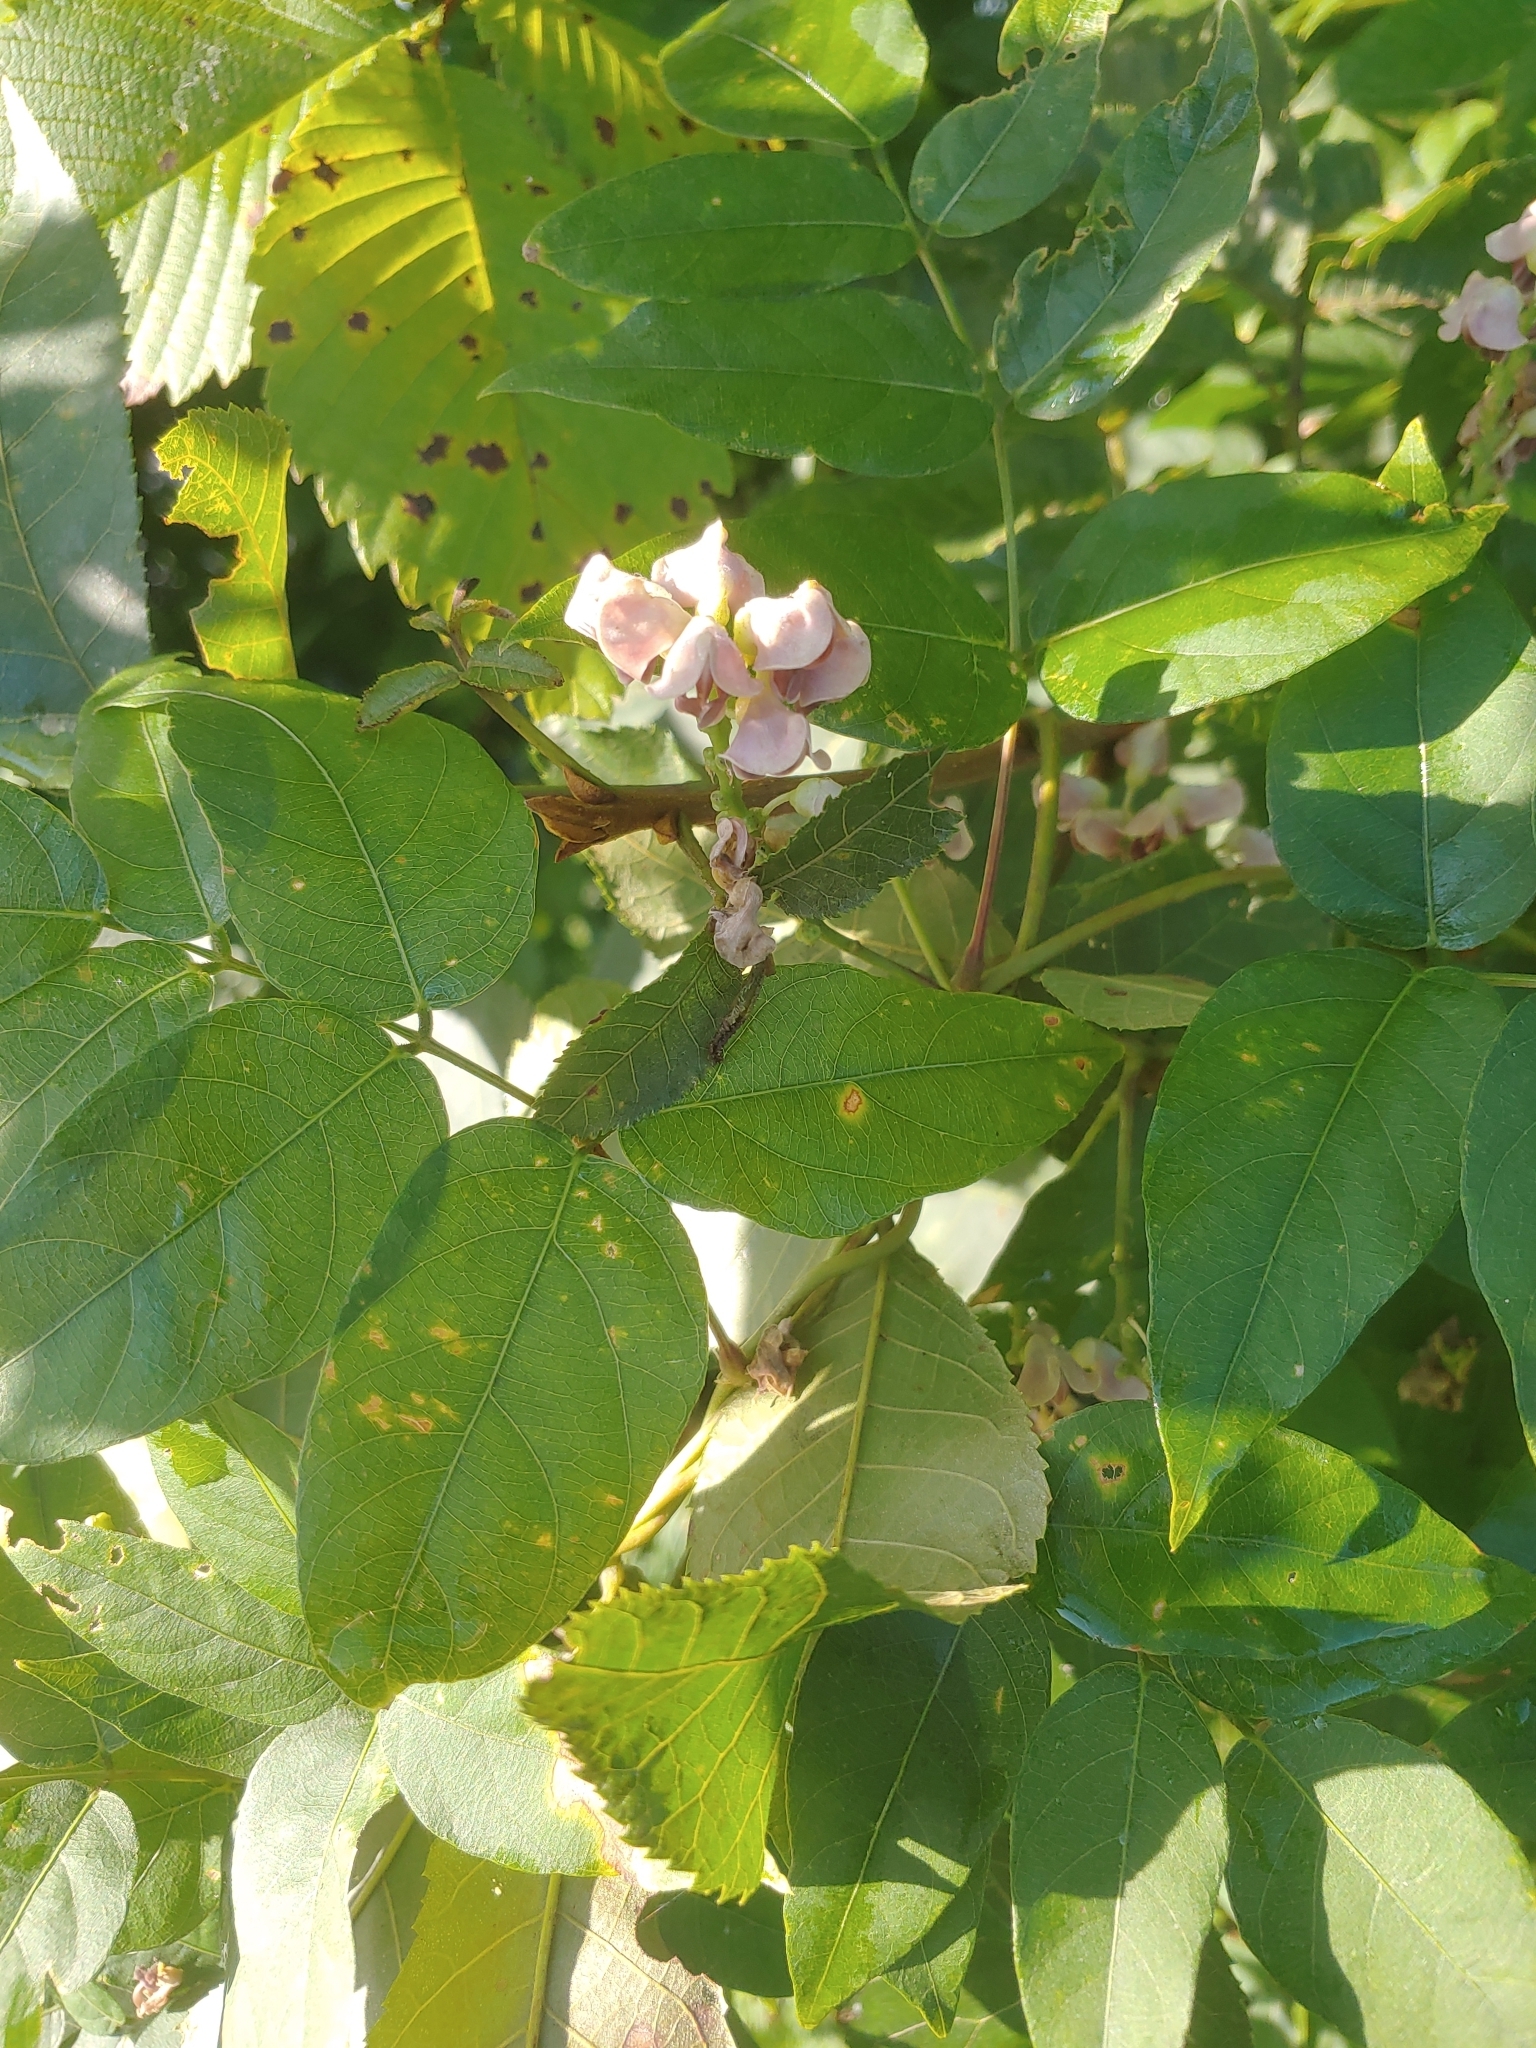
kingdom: Plantae
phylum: Tracheophyta
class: Magnoliopsida
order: Fabales
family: Fabaceae
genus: Apios
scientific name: Apios americana
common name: American potato-bean
